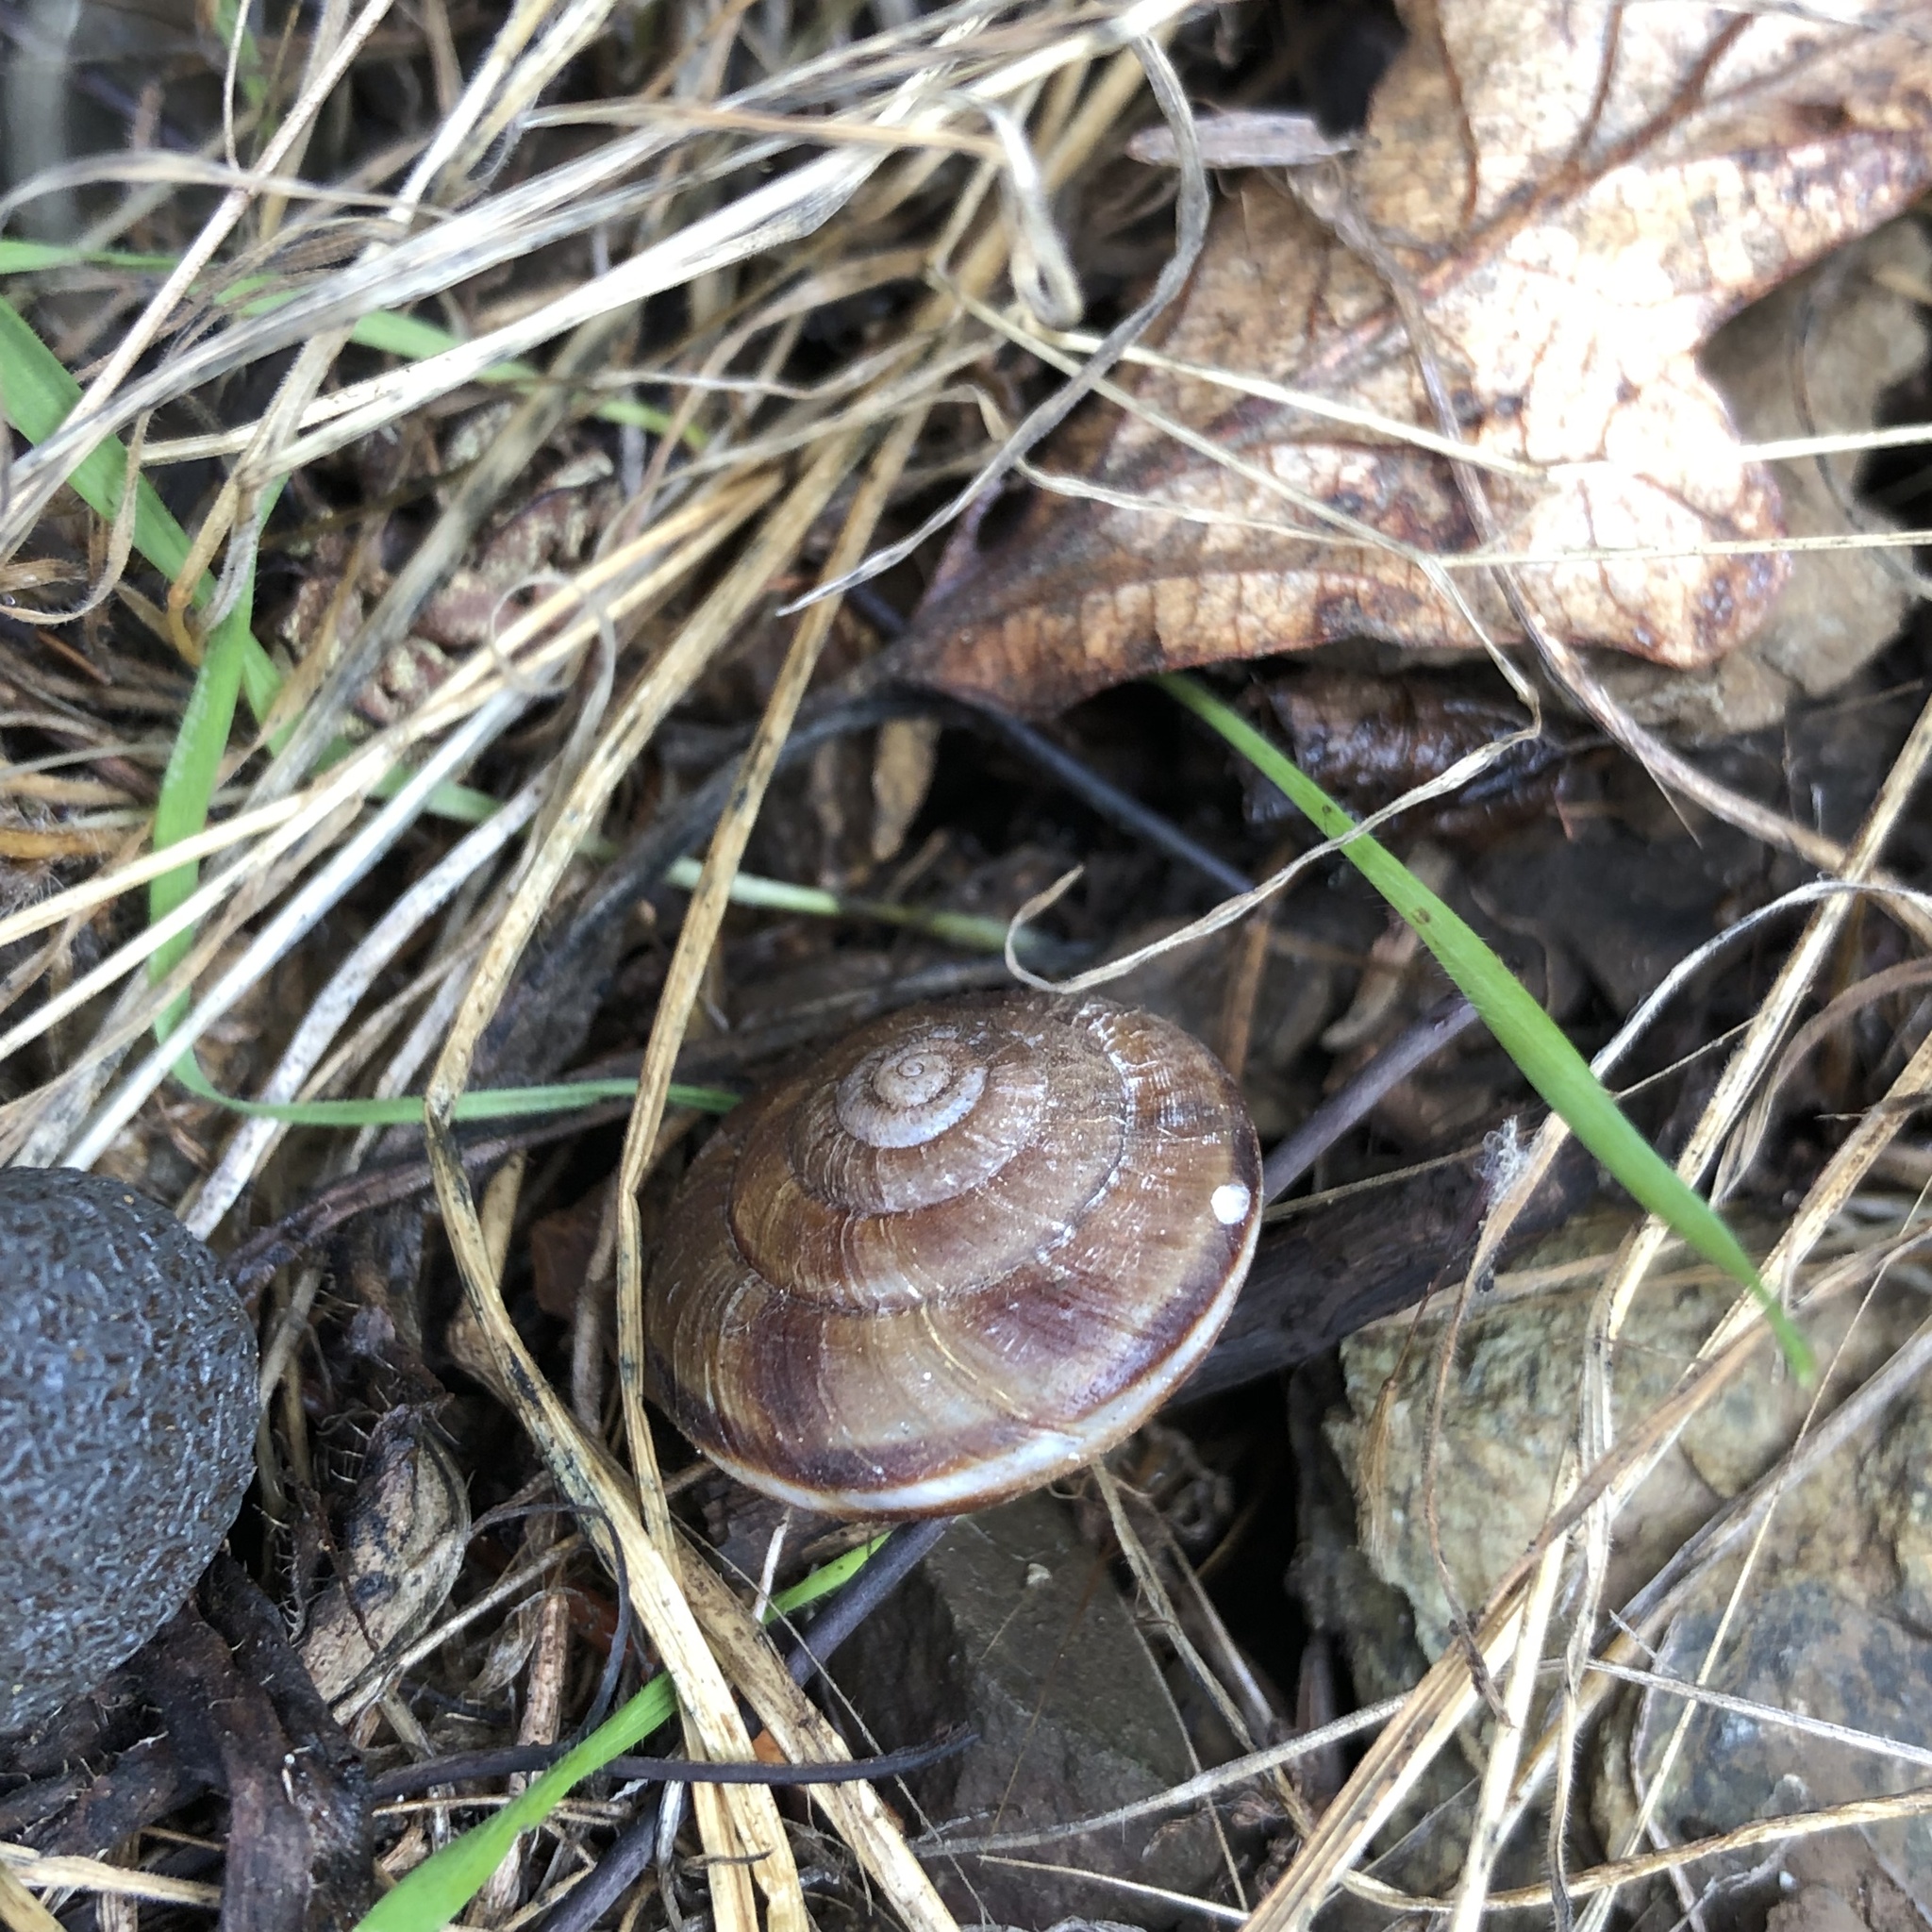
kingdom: Animalia
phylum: Mollusca
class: Gastropoda
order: Stylommatophora
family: Xanthonychidae
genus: Monadenia
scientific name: Monadenia fidelis
